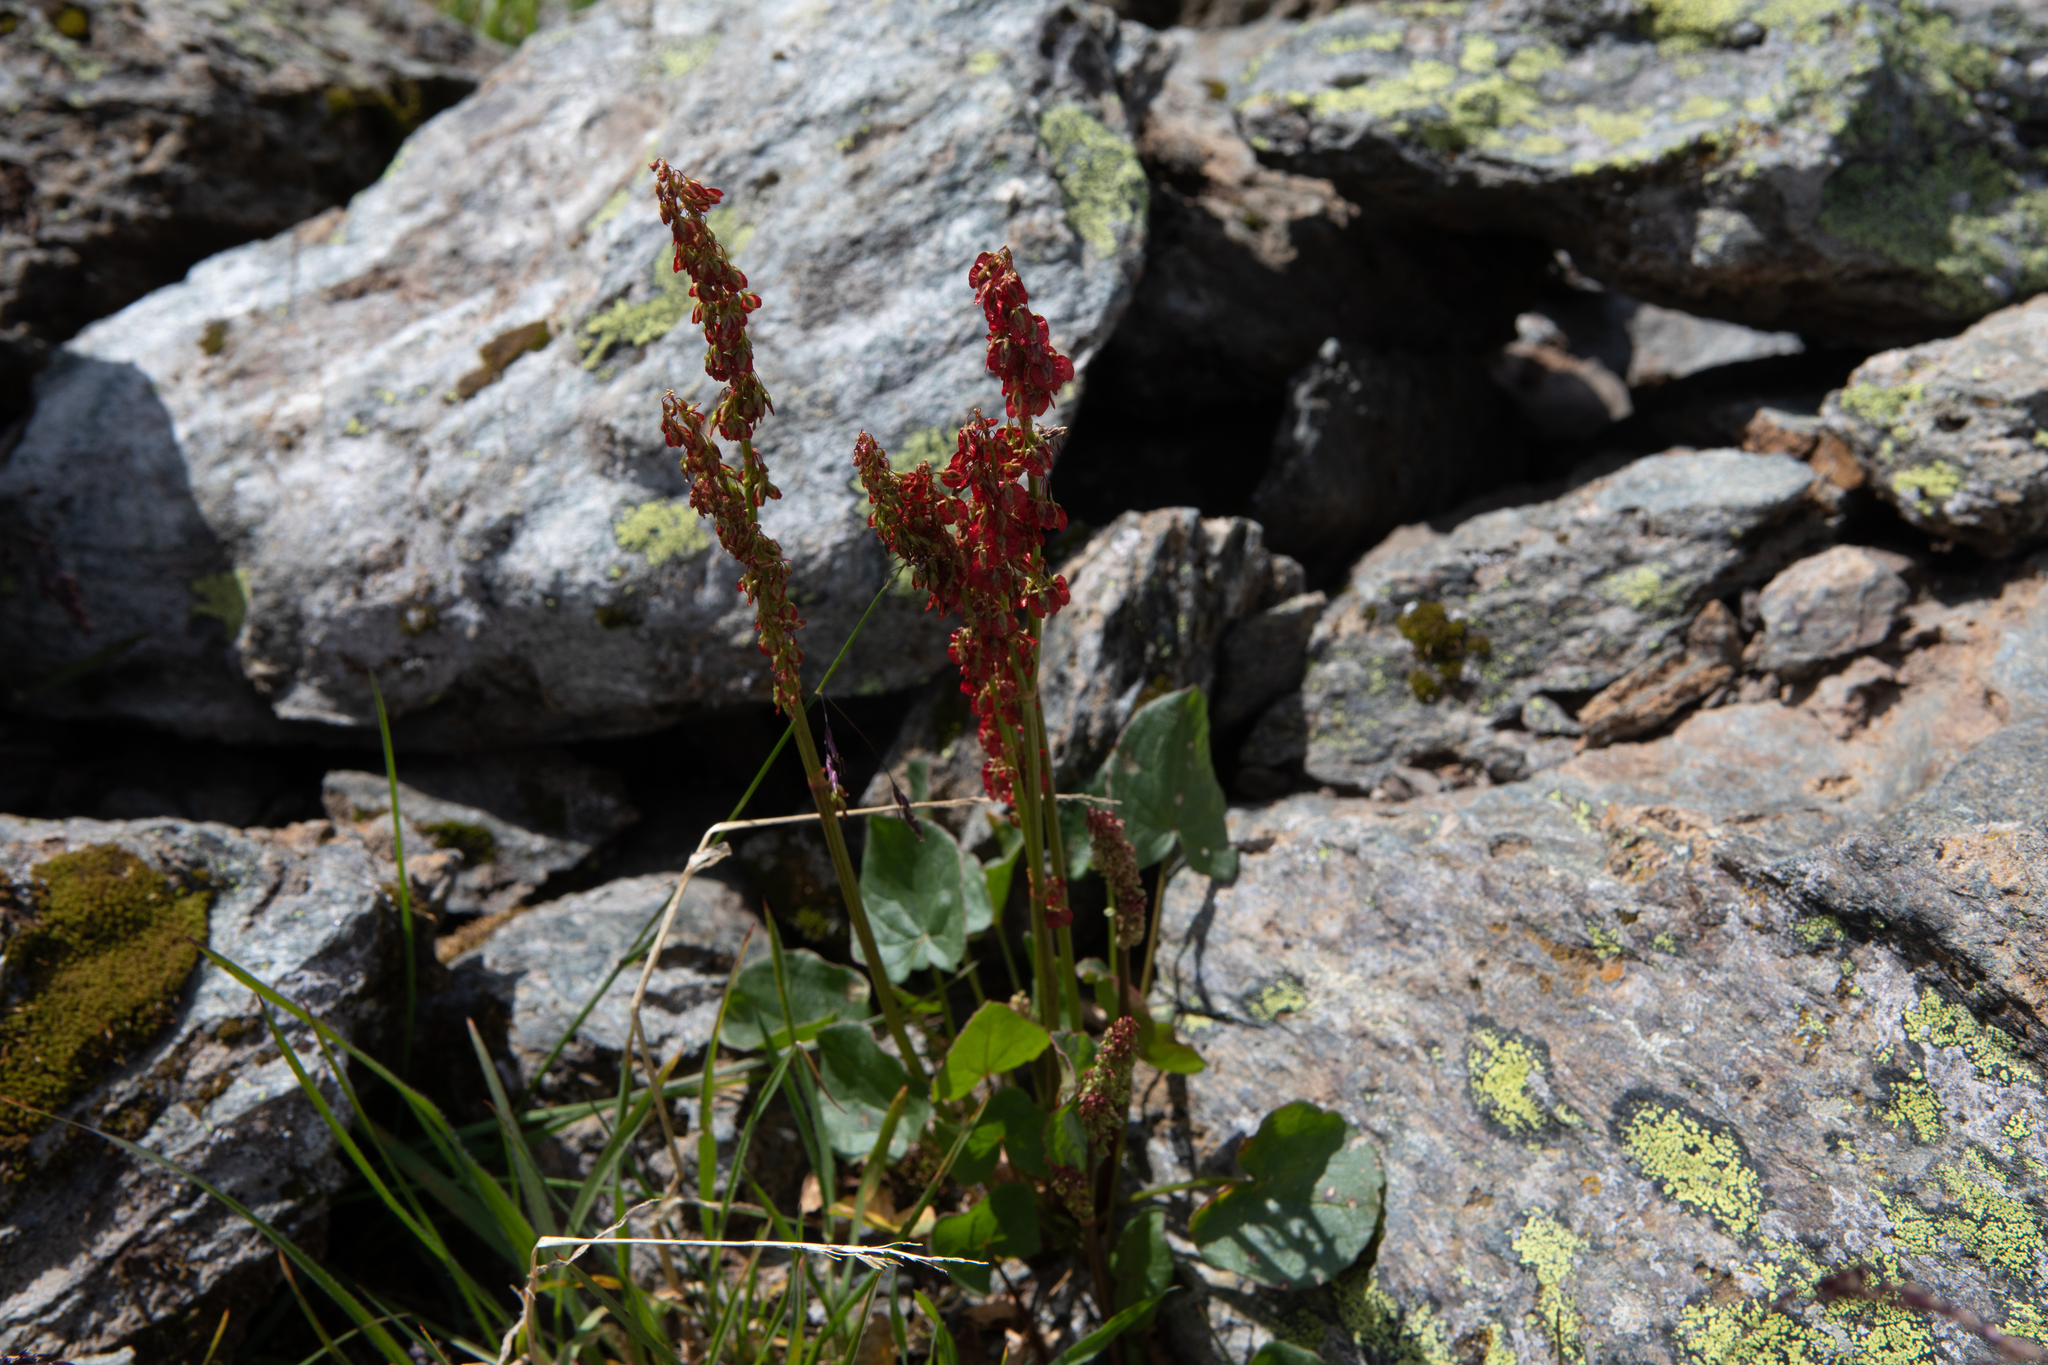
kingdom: Plantae
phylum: Tracheophyta
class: Magnoliopsida
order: Caryophyllales
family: Polygonaceae
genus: Oxyria
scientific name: Oxyria digyna
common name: Alpine mountain-sorrel
